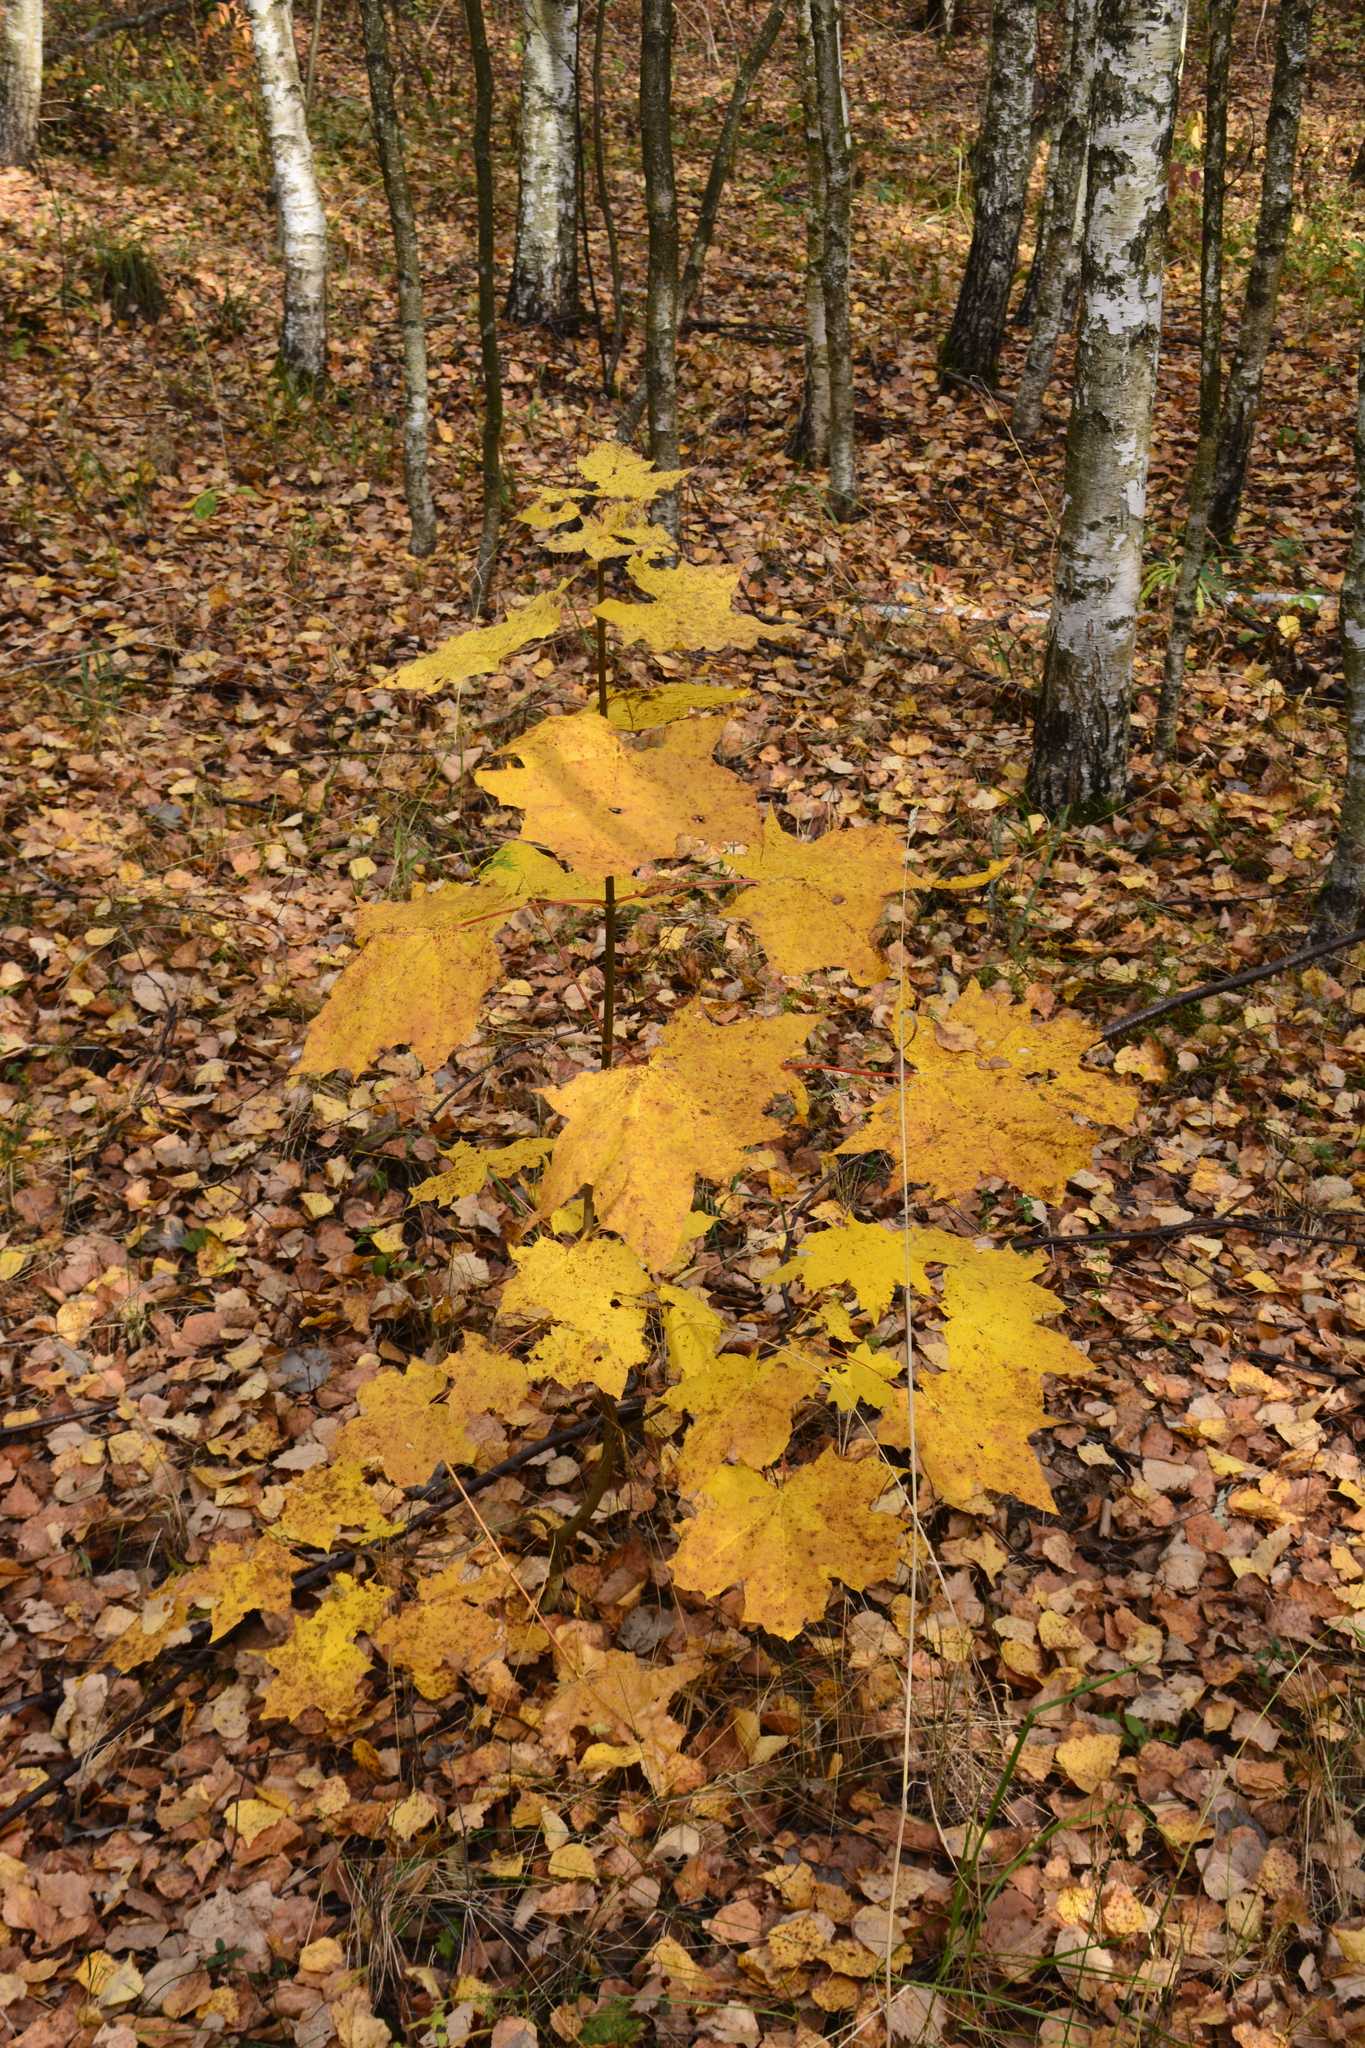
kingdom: Plantae
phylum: Tracheophyta
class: Magnoliopsida
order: Sapindales
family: Sapindaceae
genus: Acer
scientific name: Acer platanoides
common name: Norway maple
